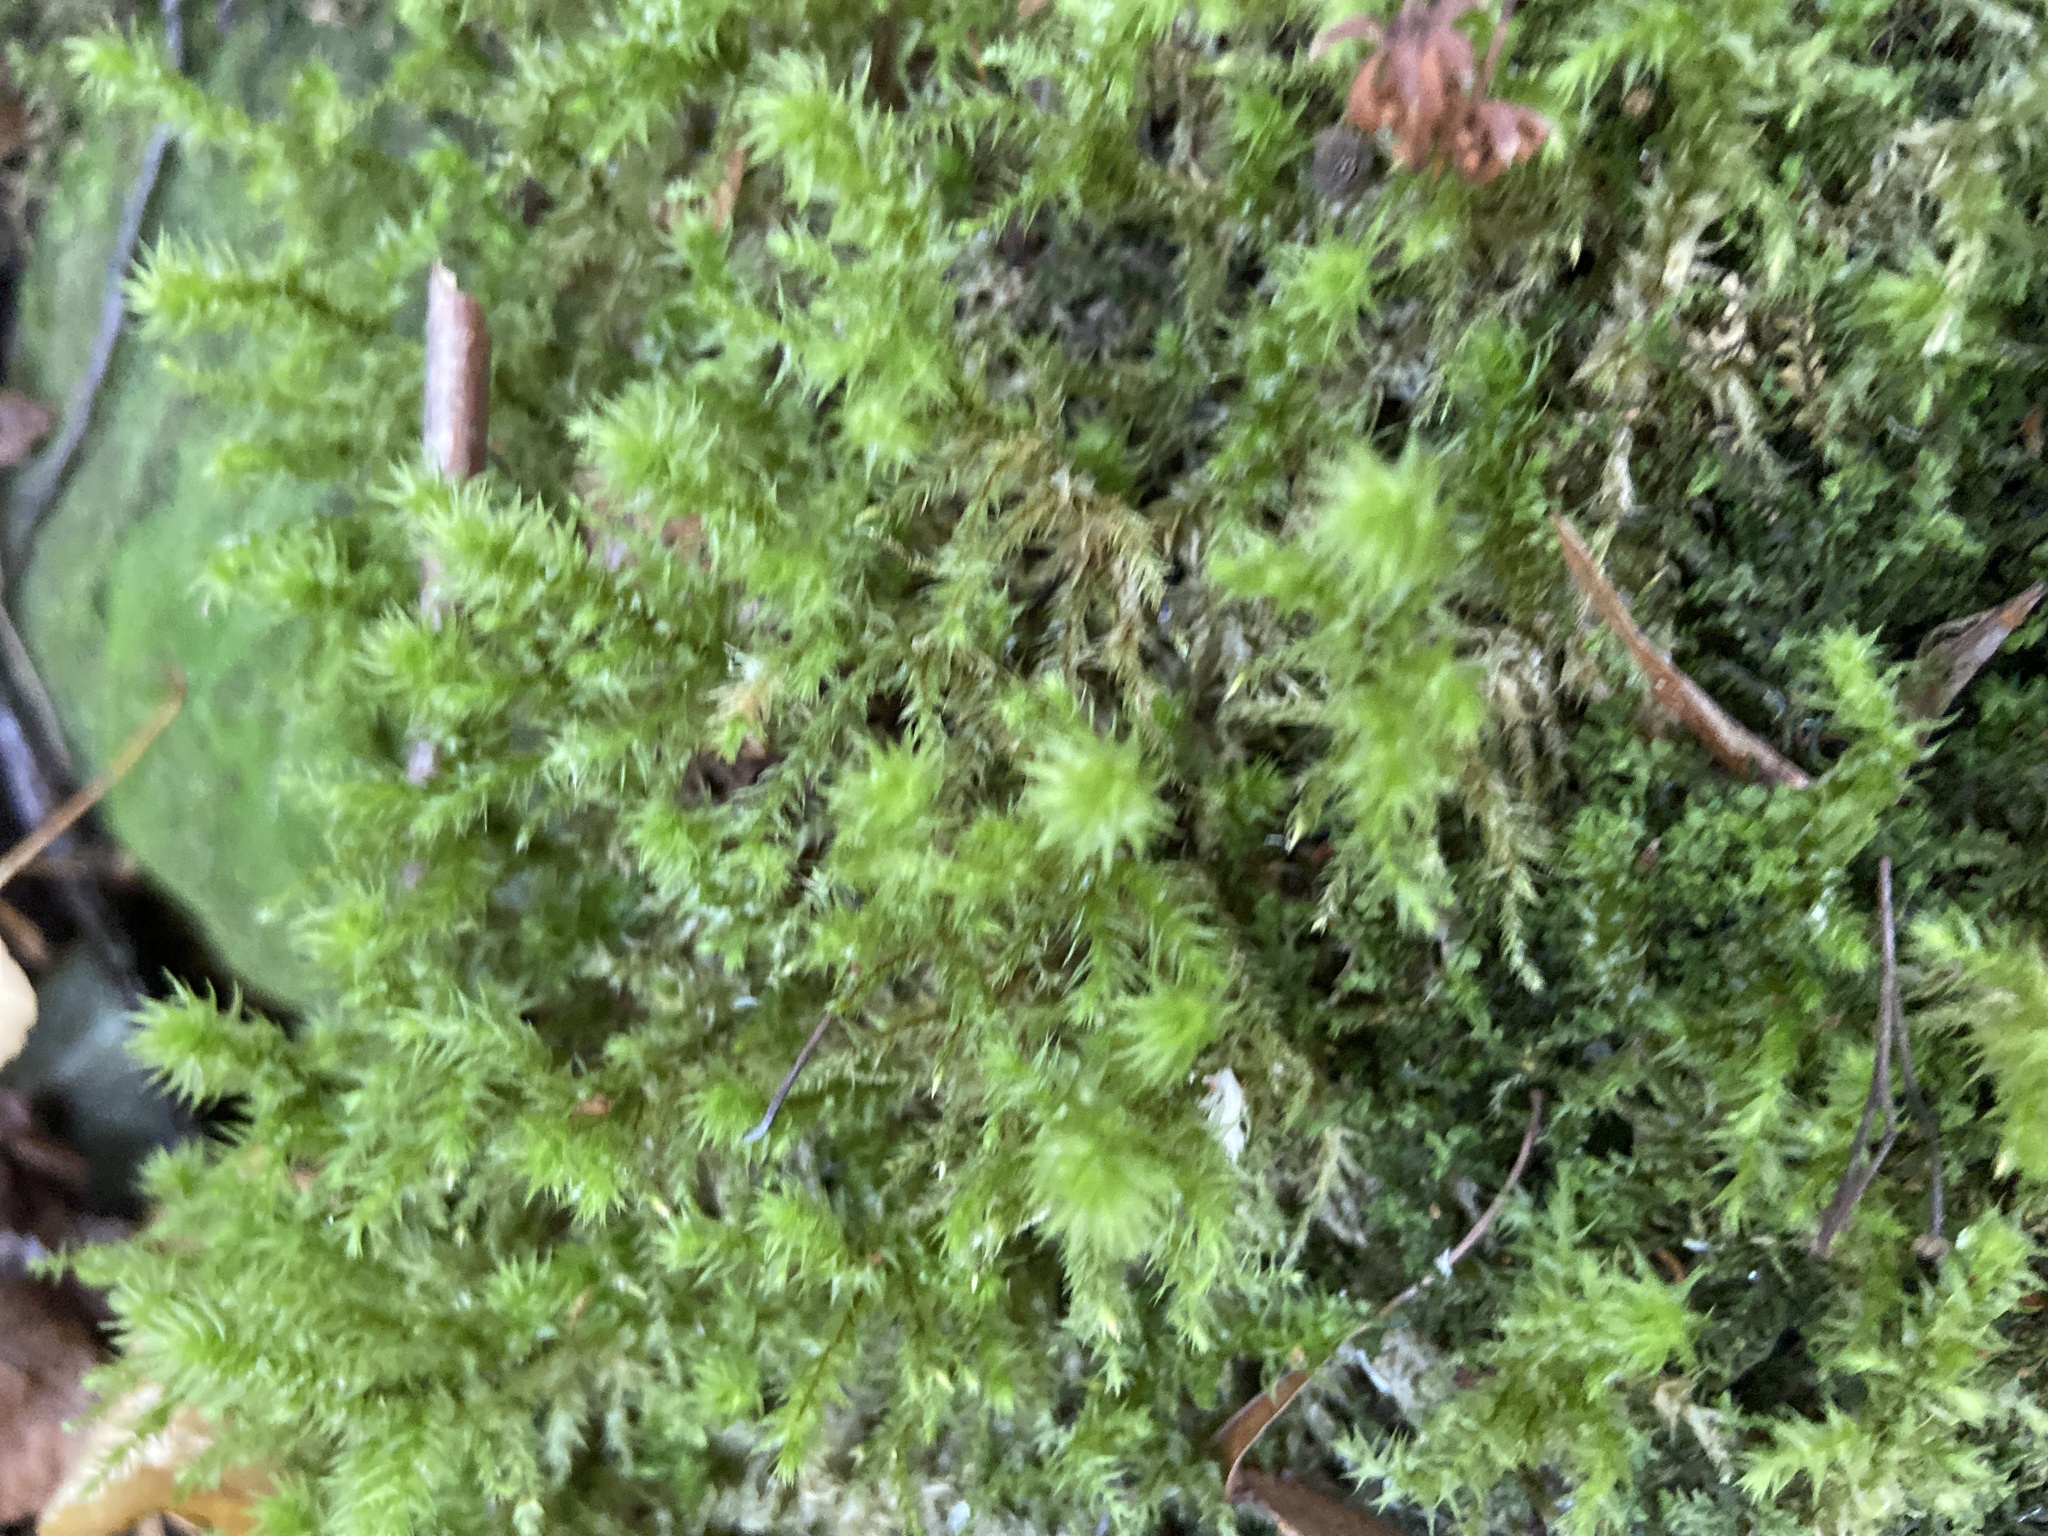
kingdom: Plantae
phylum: Bryophyta
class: Bryopsida
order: Hypnales
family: Hylocomiaceae
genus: Hylocomiadelphus
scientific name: Hylocomiadelphus triquetrus
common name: Rough goose neck moss
